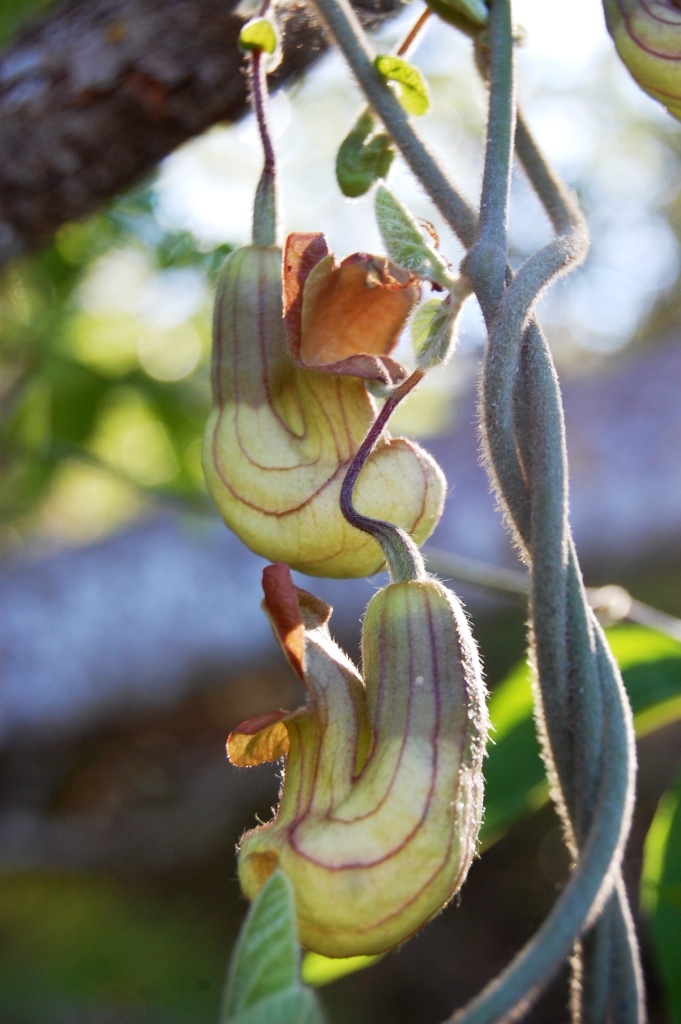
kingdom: Plantae
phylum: Tracheophyta
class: Magnoliopsida
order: Piperales
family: Aristolochiaceae
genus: Isotrema
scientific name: Isotrema californicum
